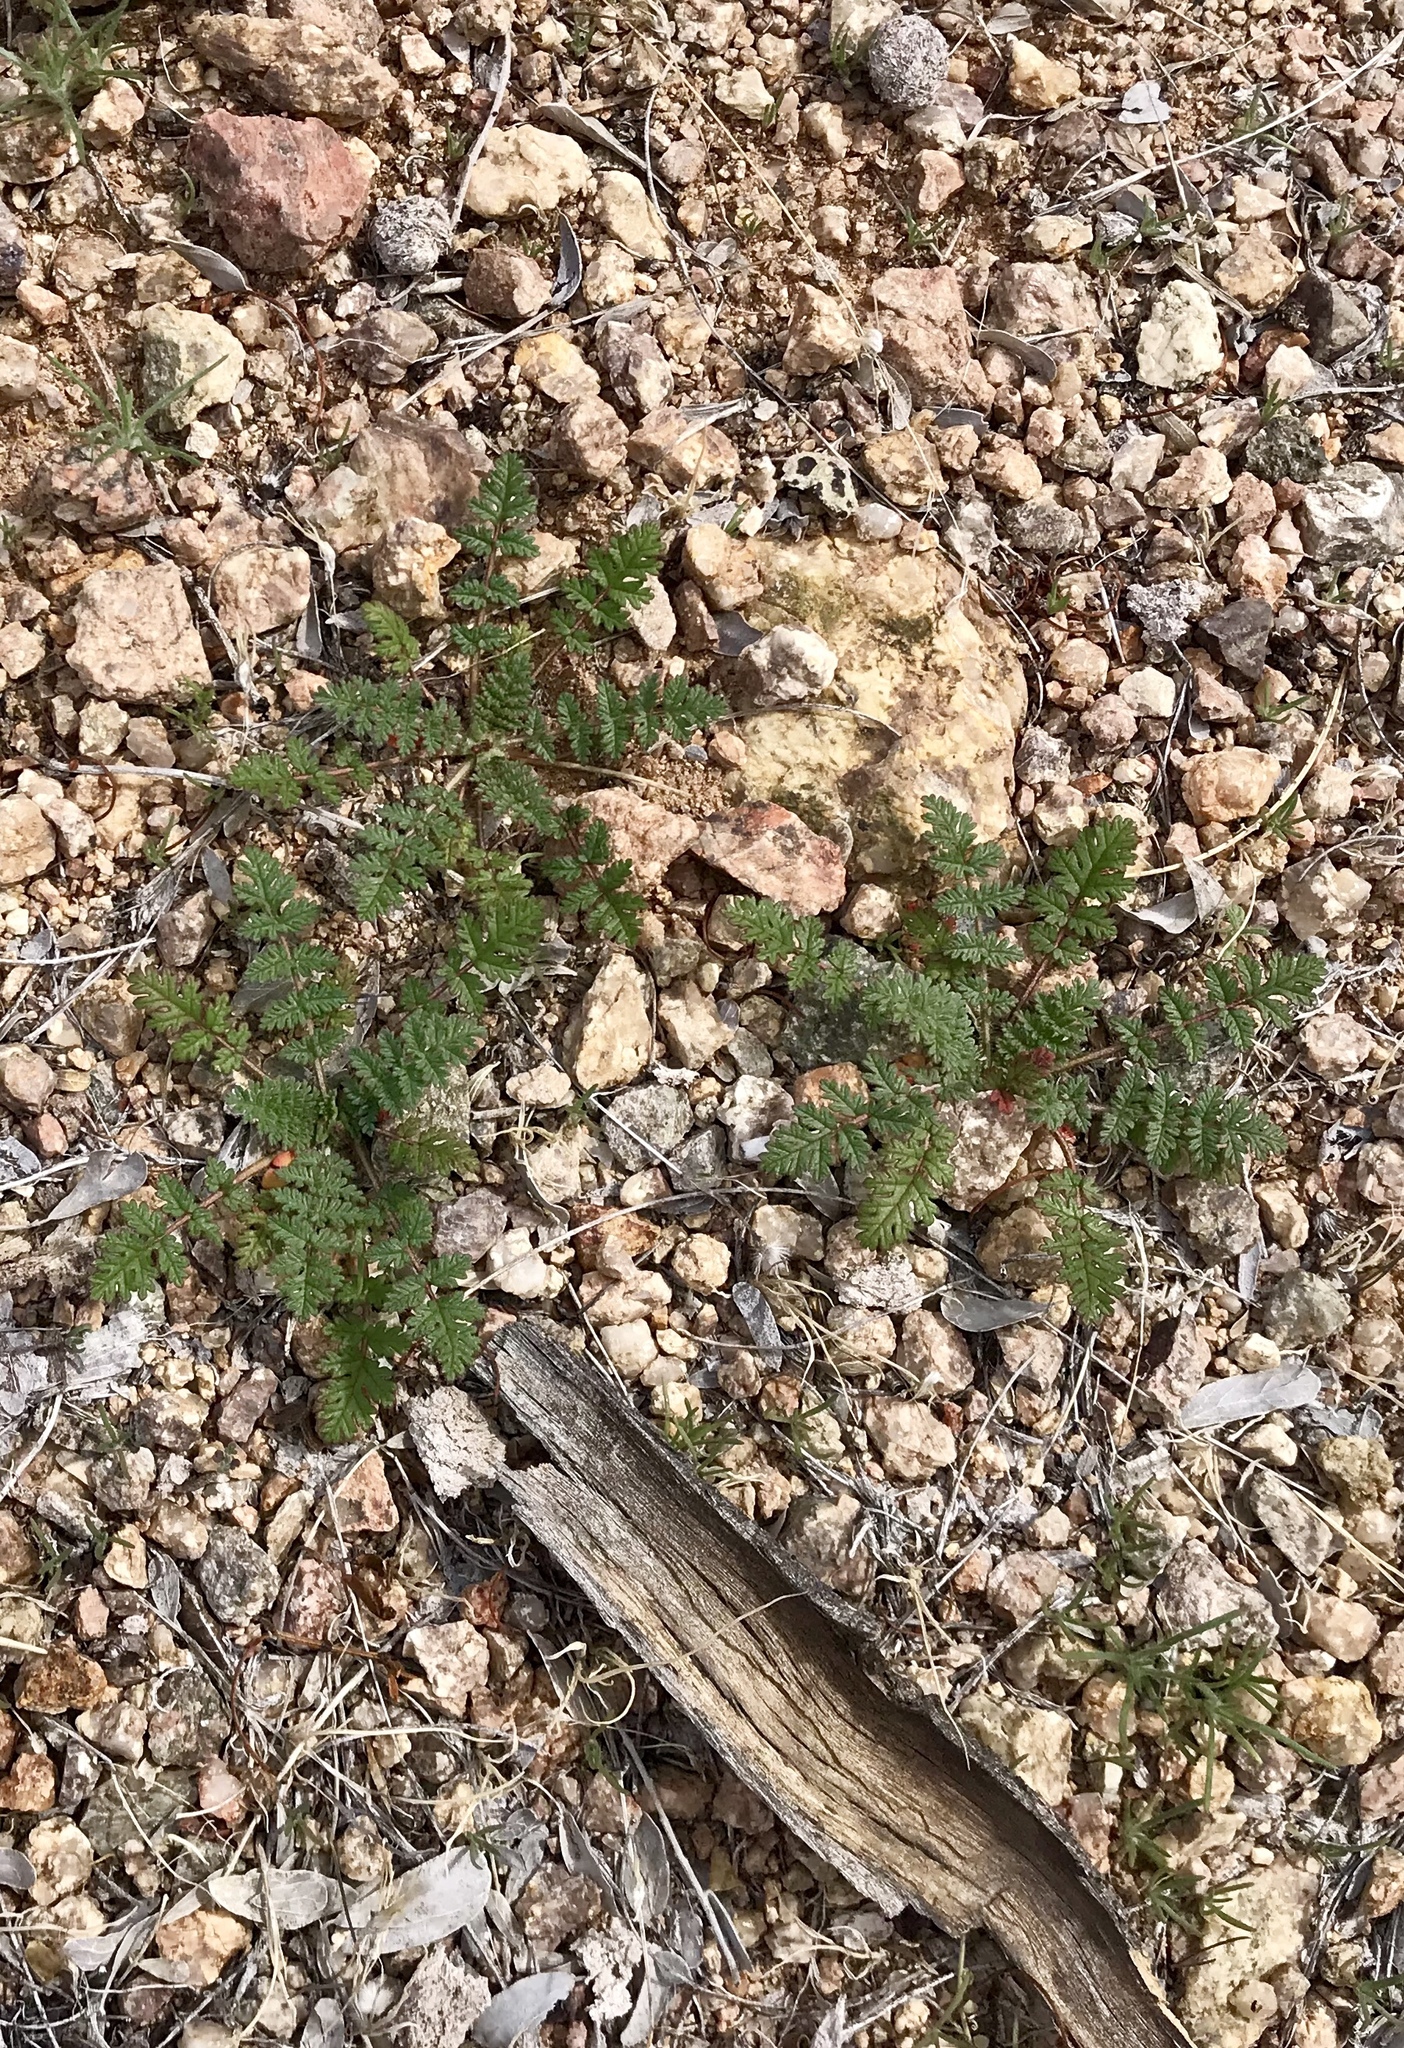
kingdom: Plantae
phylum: Tracheophyta
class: Magnoliopsida
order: Geraniales
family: Geraniaceae
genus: Erodium
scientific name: Erodium cicutarium
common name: Common stork's-bill
